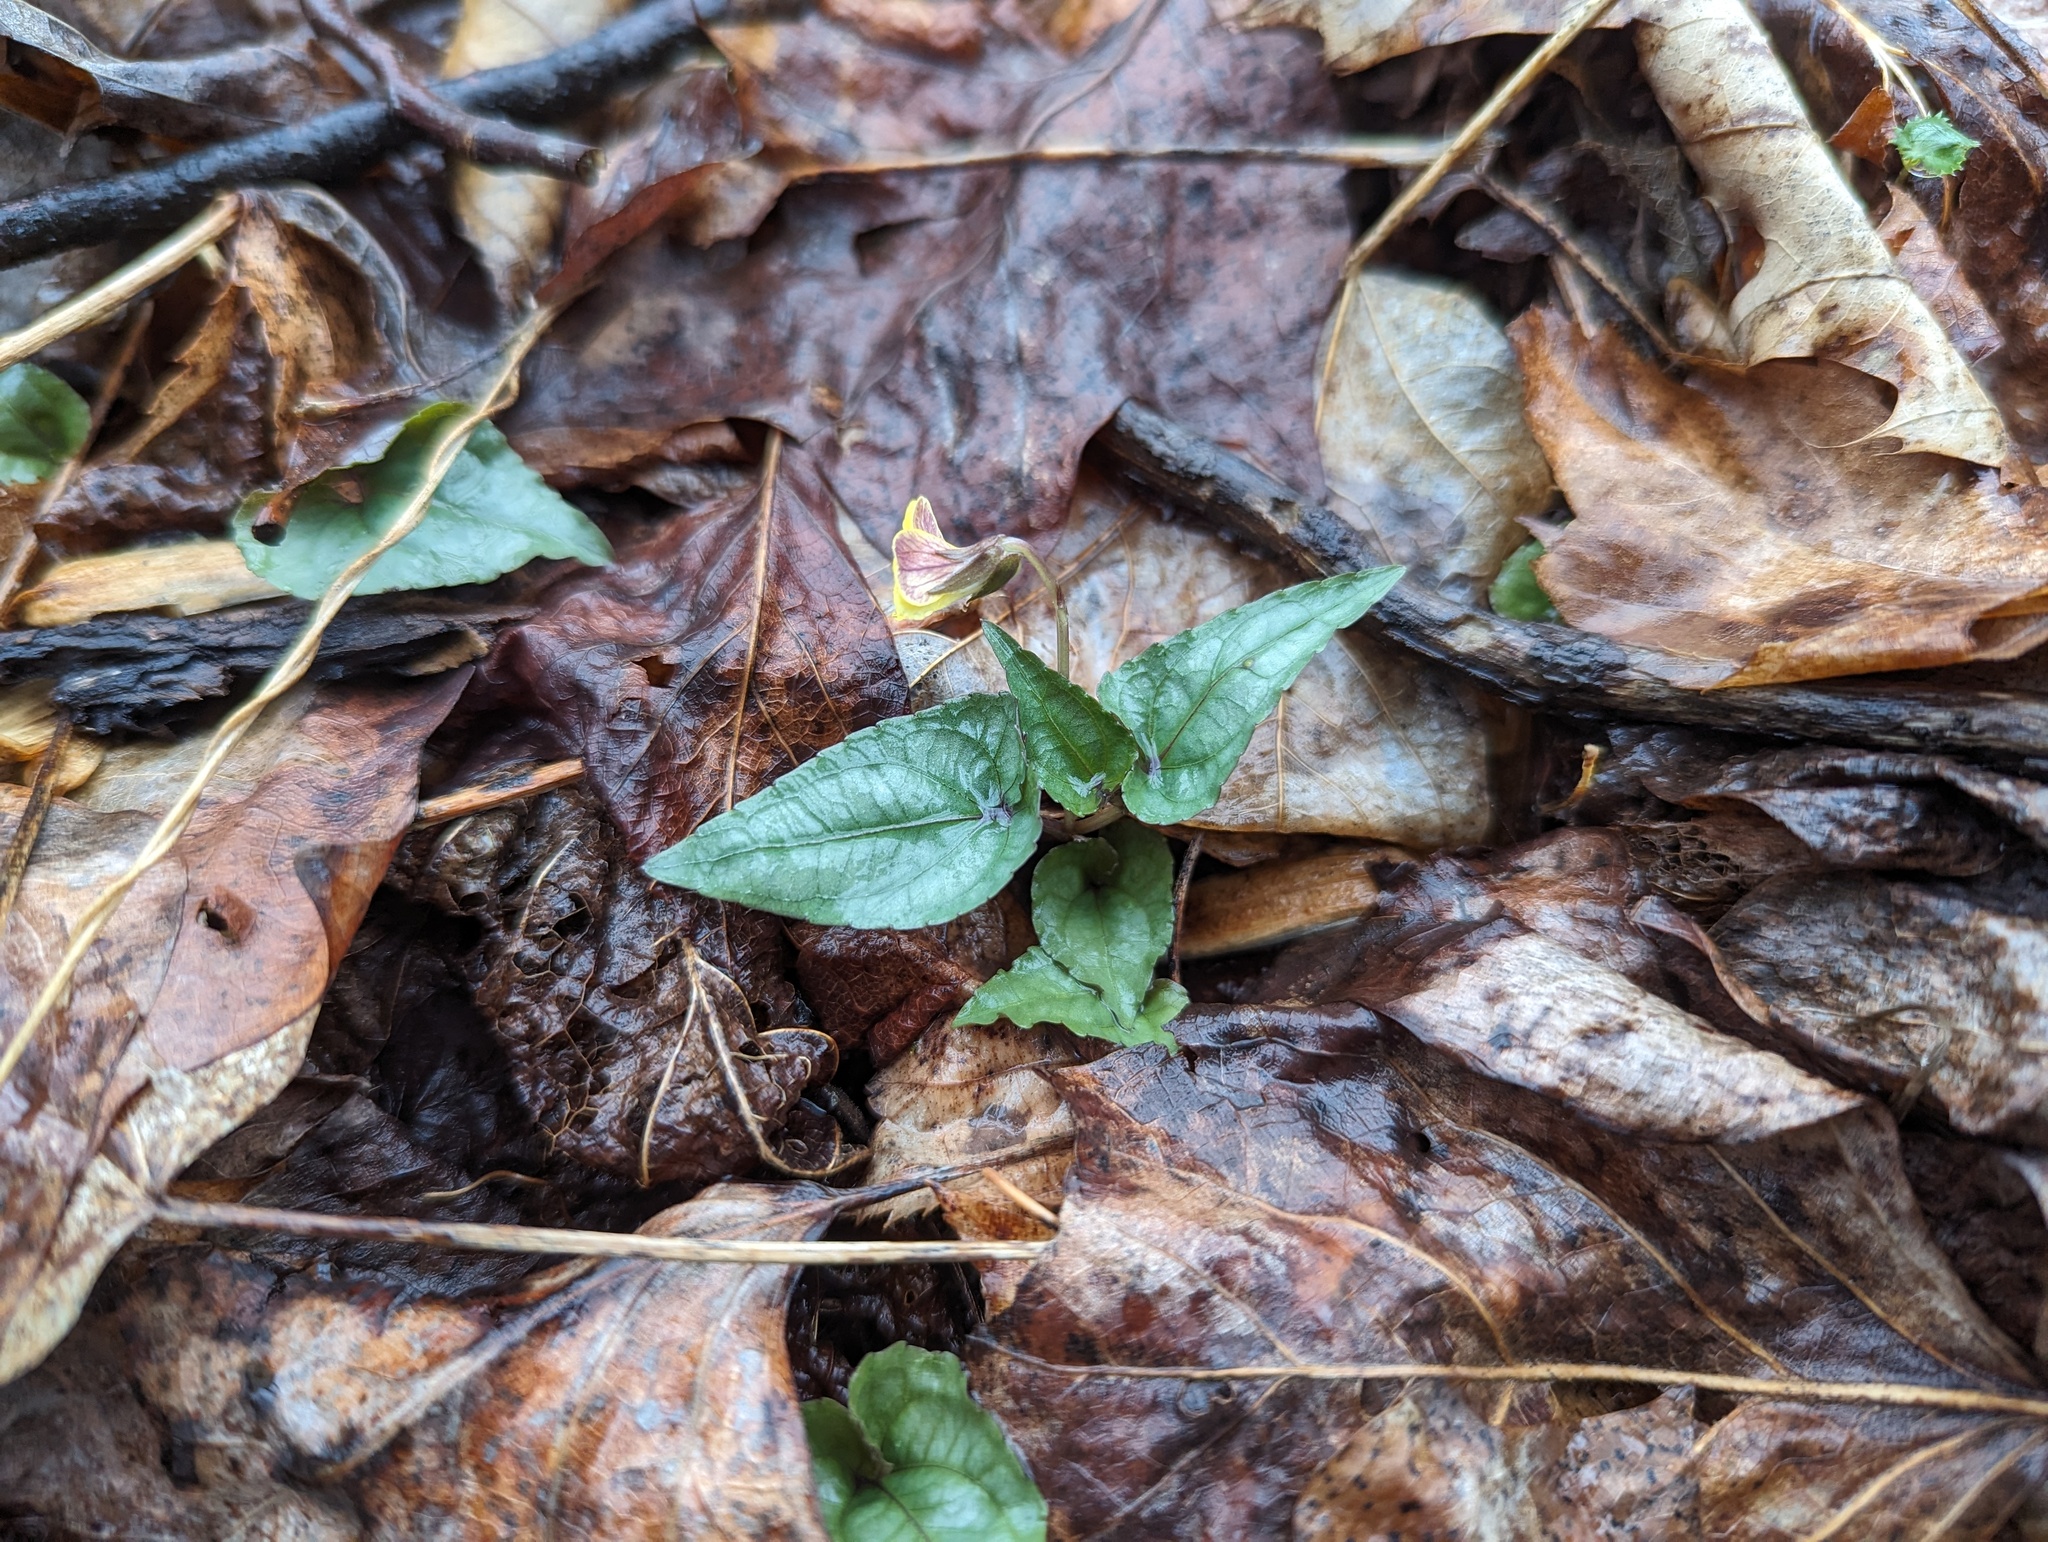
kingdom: Plantae
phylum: Tracheophyta
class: Magnoliopsida
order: Malpighiales
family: Violaceae
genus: Viola
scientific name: Viola hastata
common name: Spear-leaf violet
